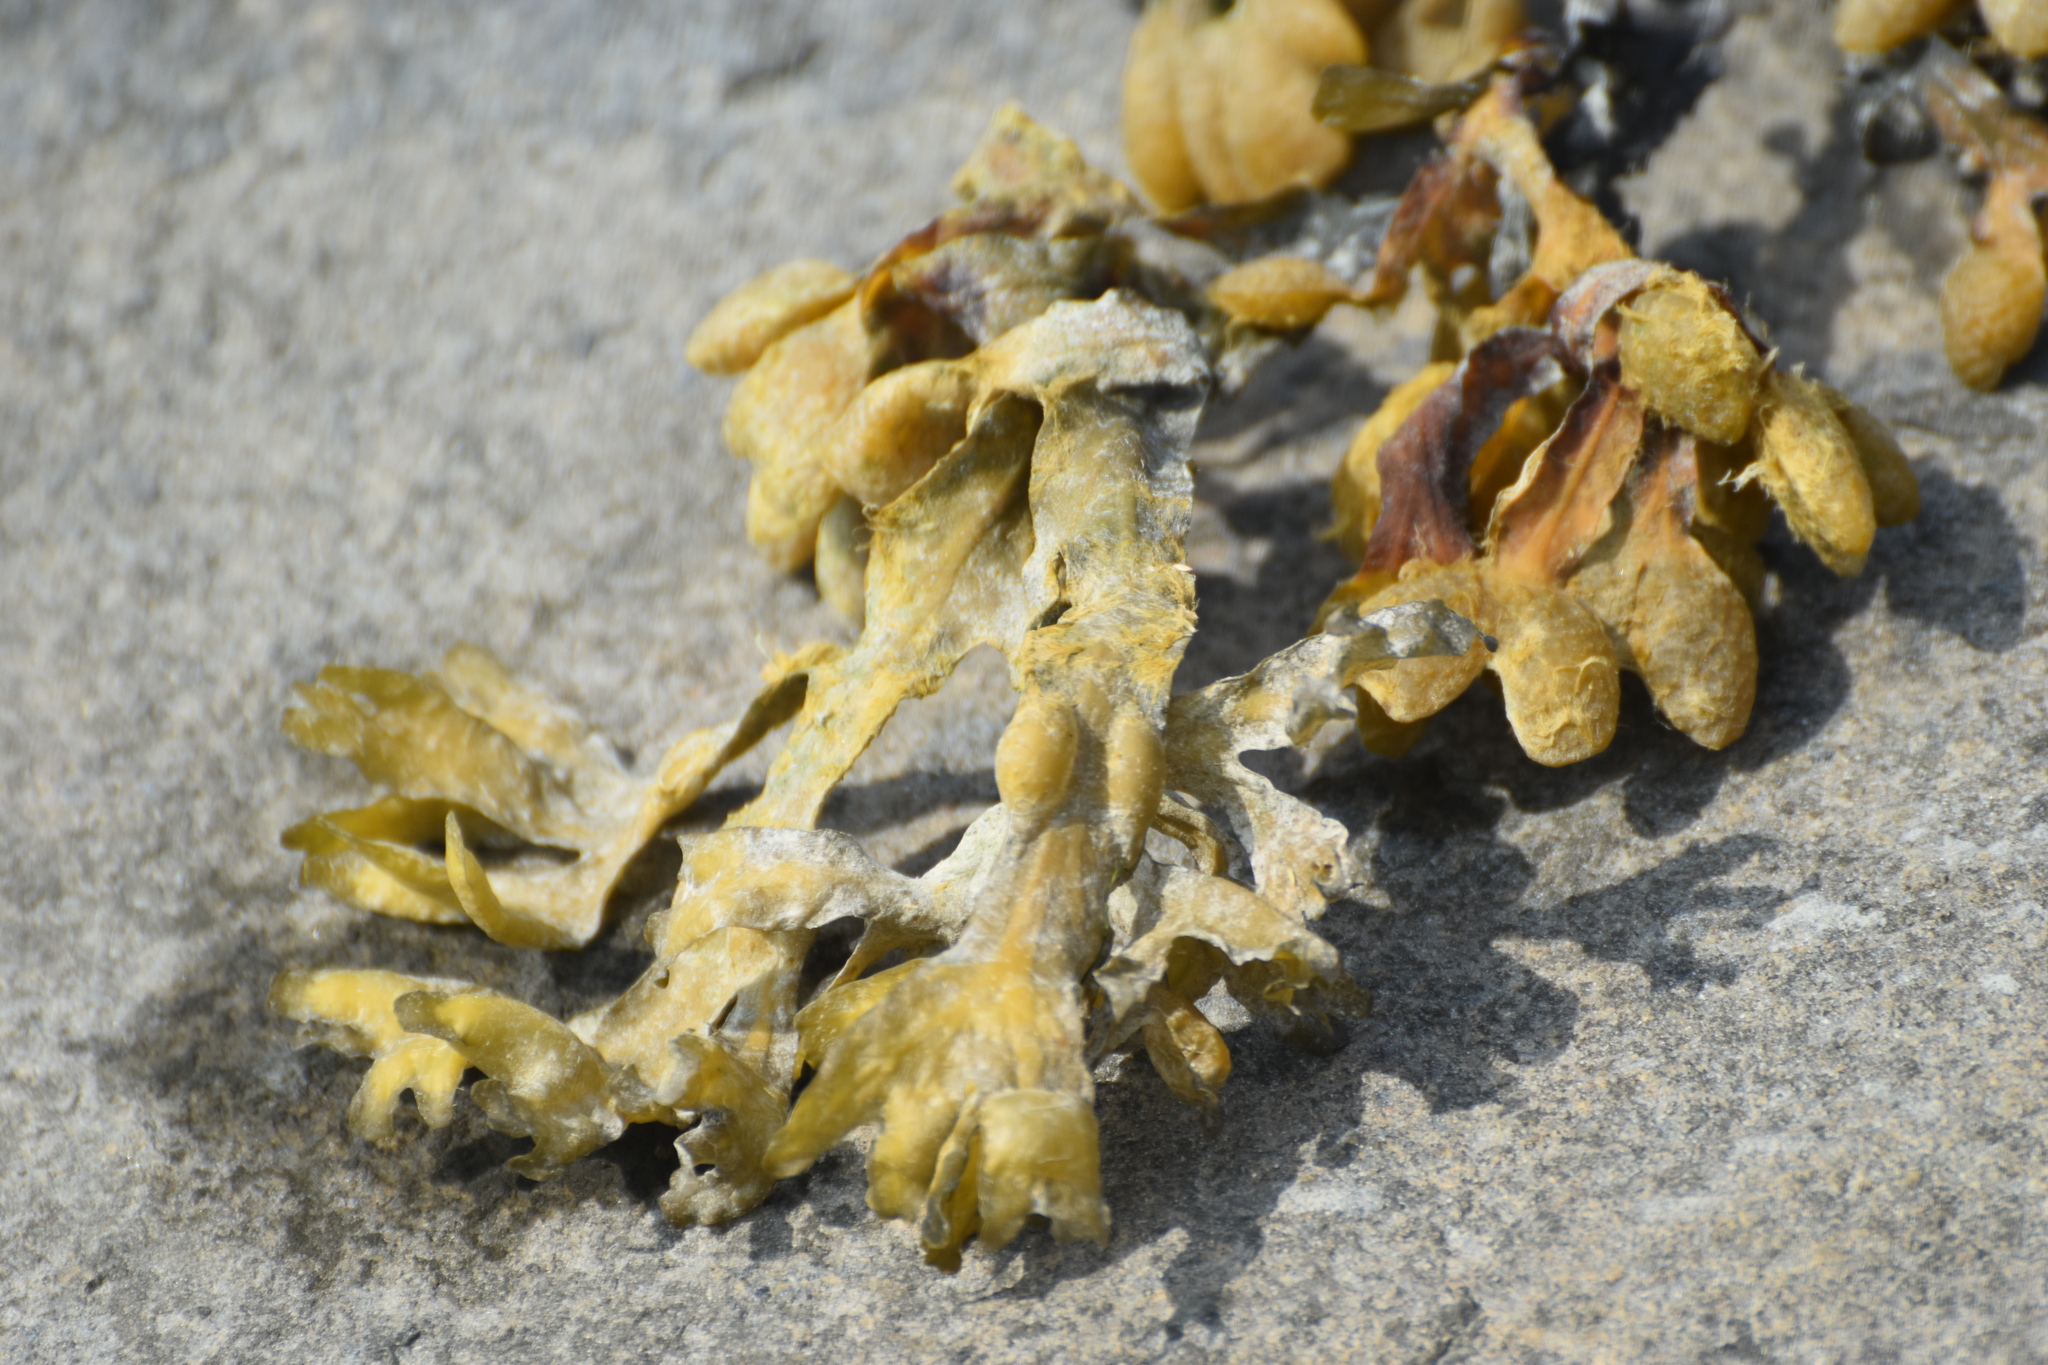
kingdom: Chromista
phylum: Ochrophyta
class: Phaeophyceae
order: Fucales
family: Fucaceae
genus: Fucus
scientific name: Fucus vesiculosus
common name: Bladder wrack
